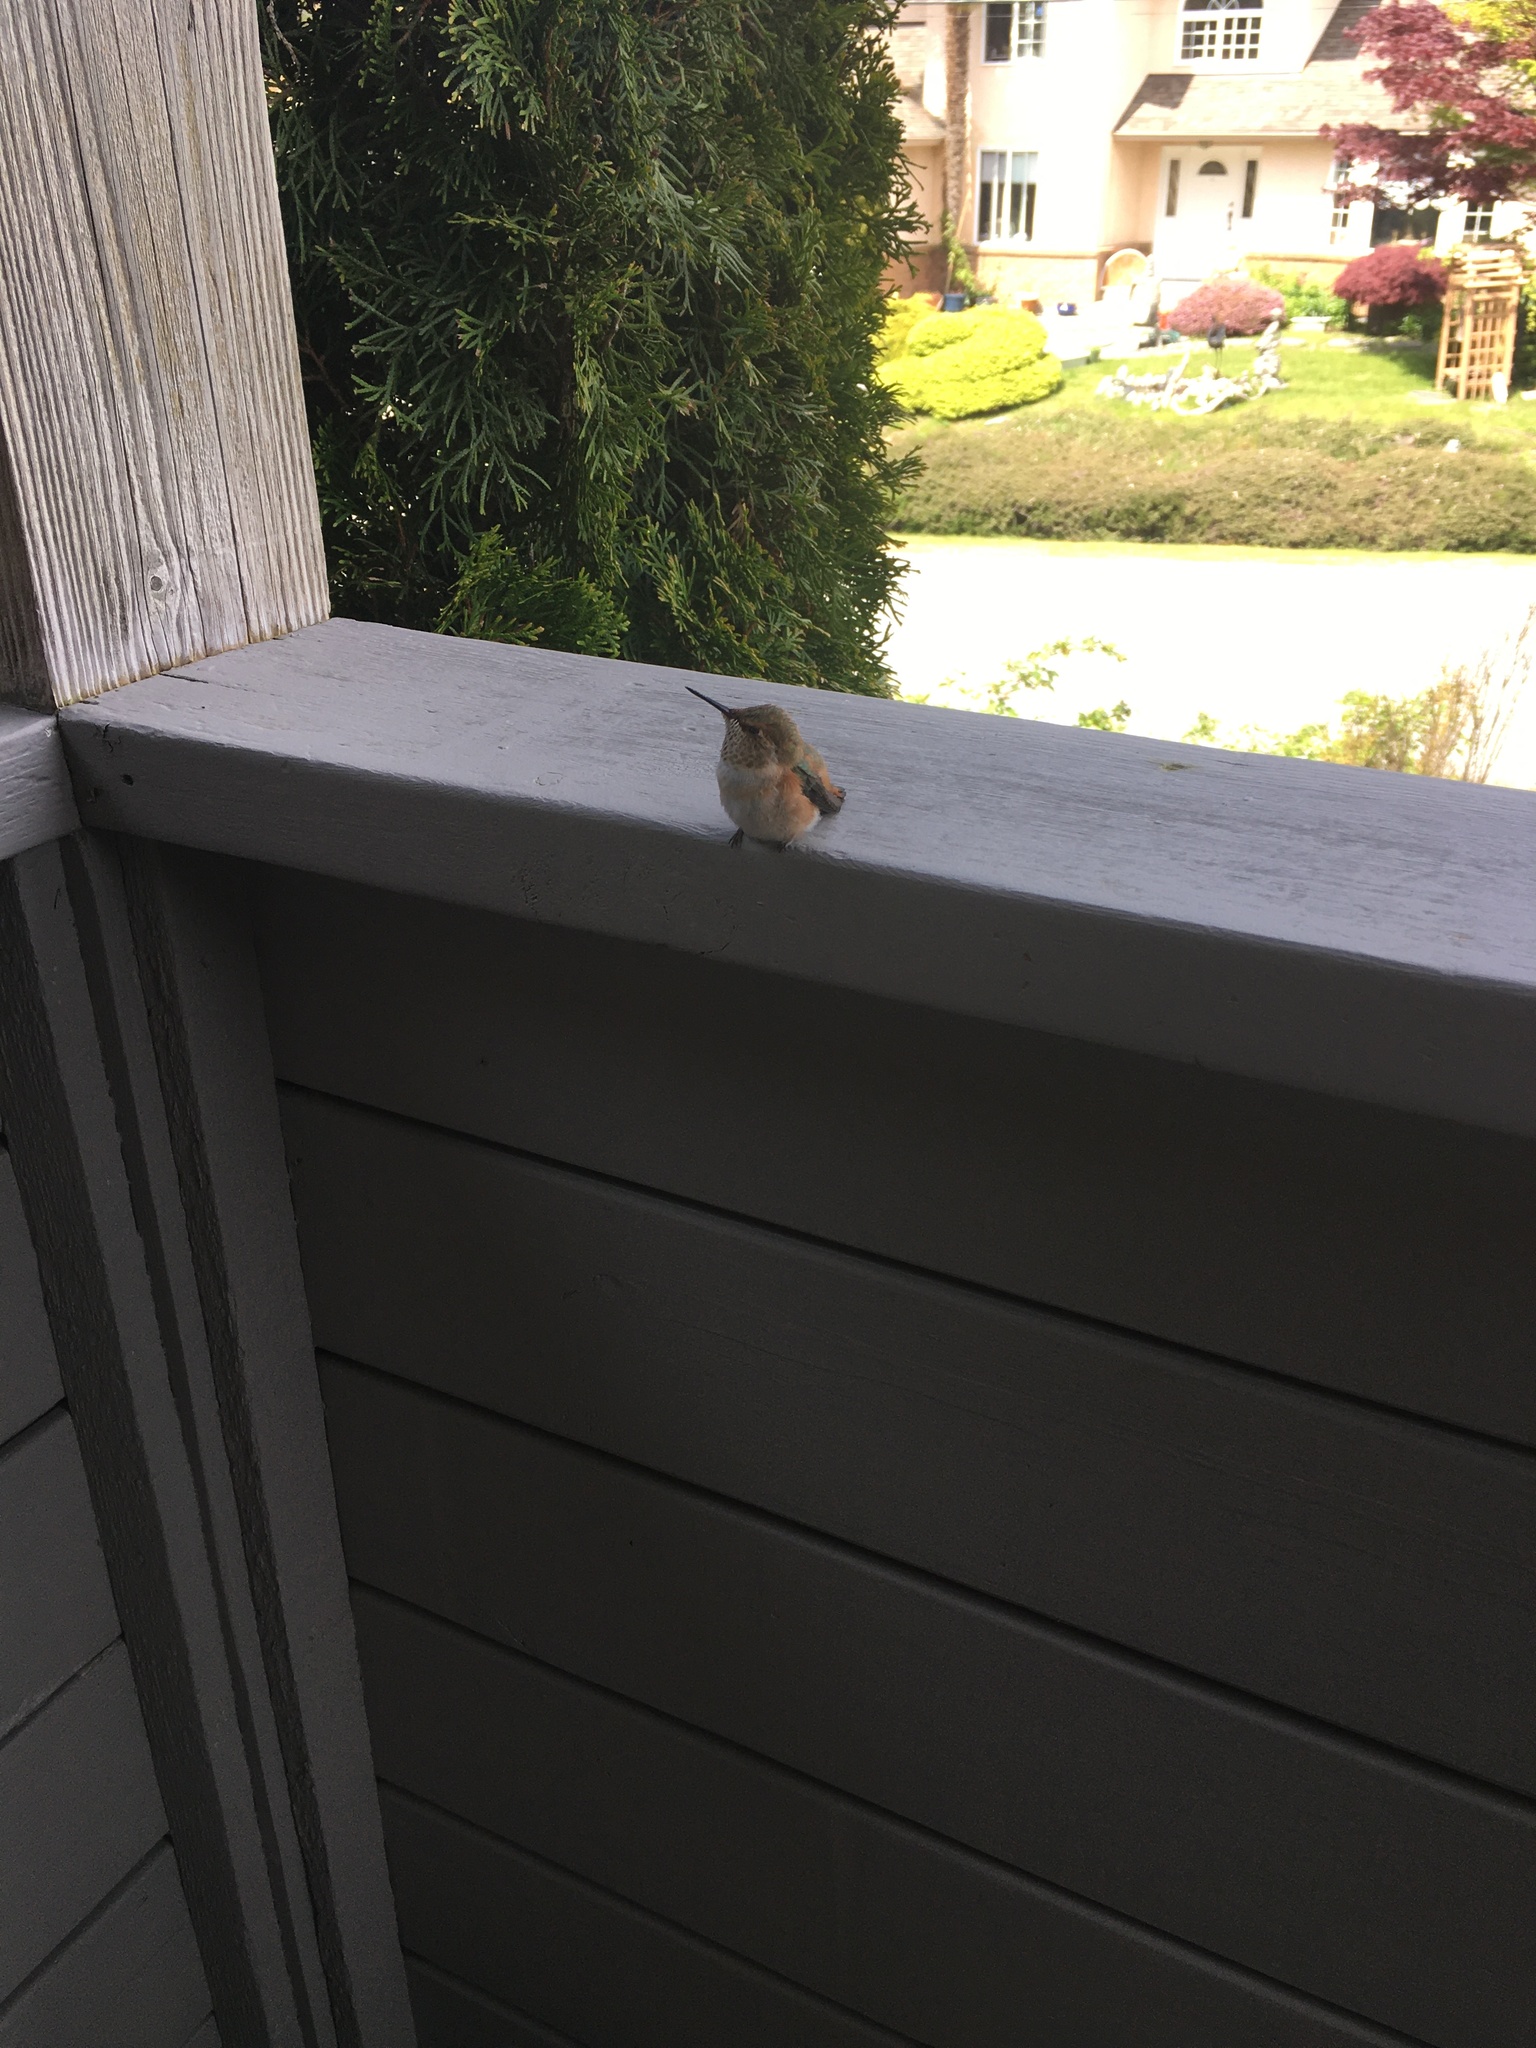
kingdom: Animalia
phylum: Chordata
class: Aves
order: Apodiformes
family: Trochilidae
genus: Selasphorus
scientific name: Selasphorus rufus
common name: Rufous hummingbird
